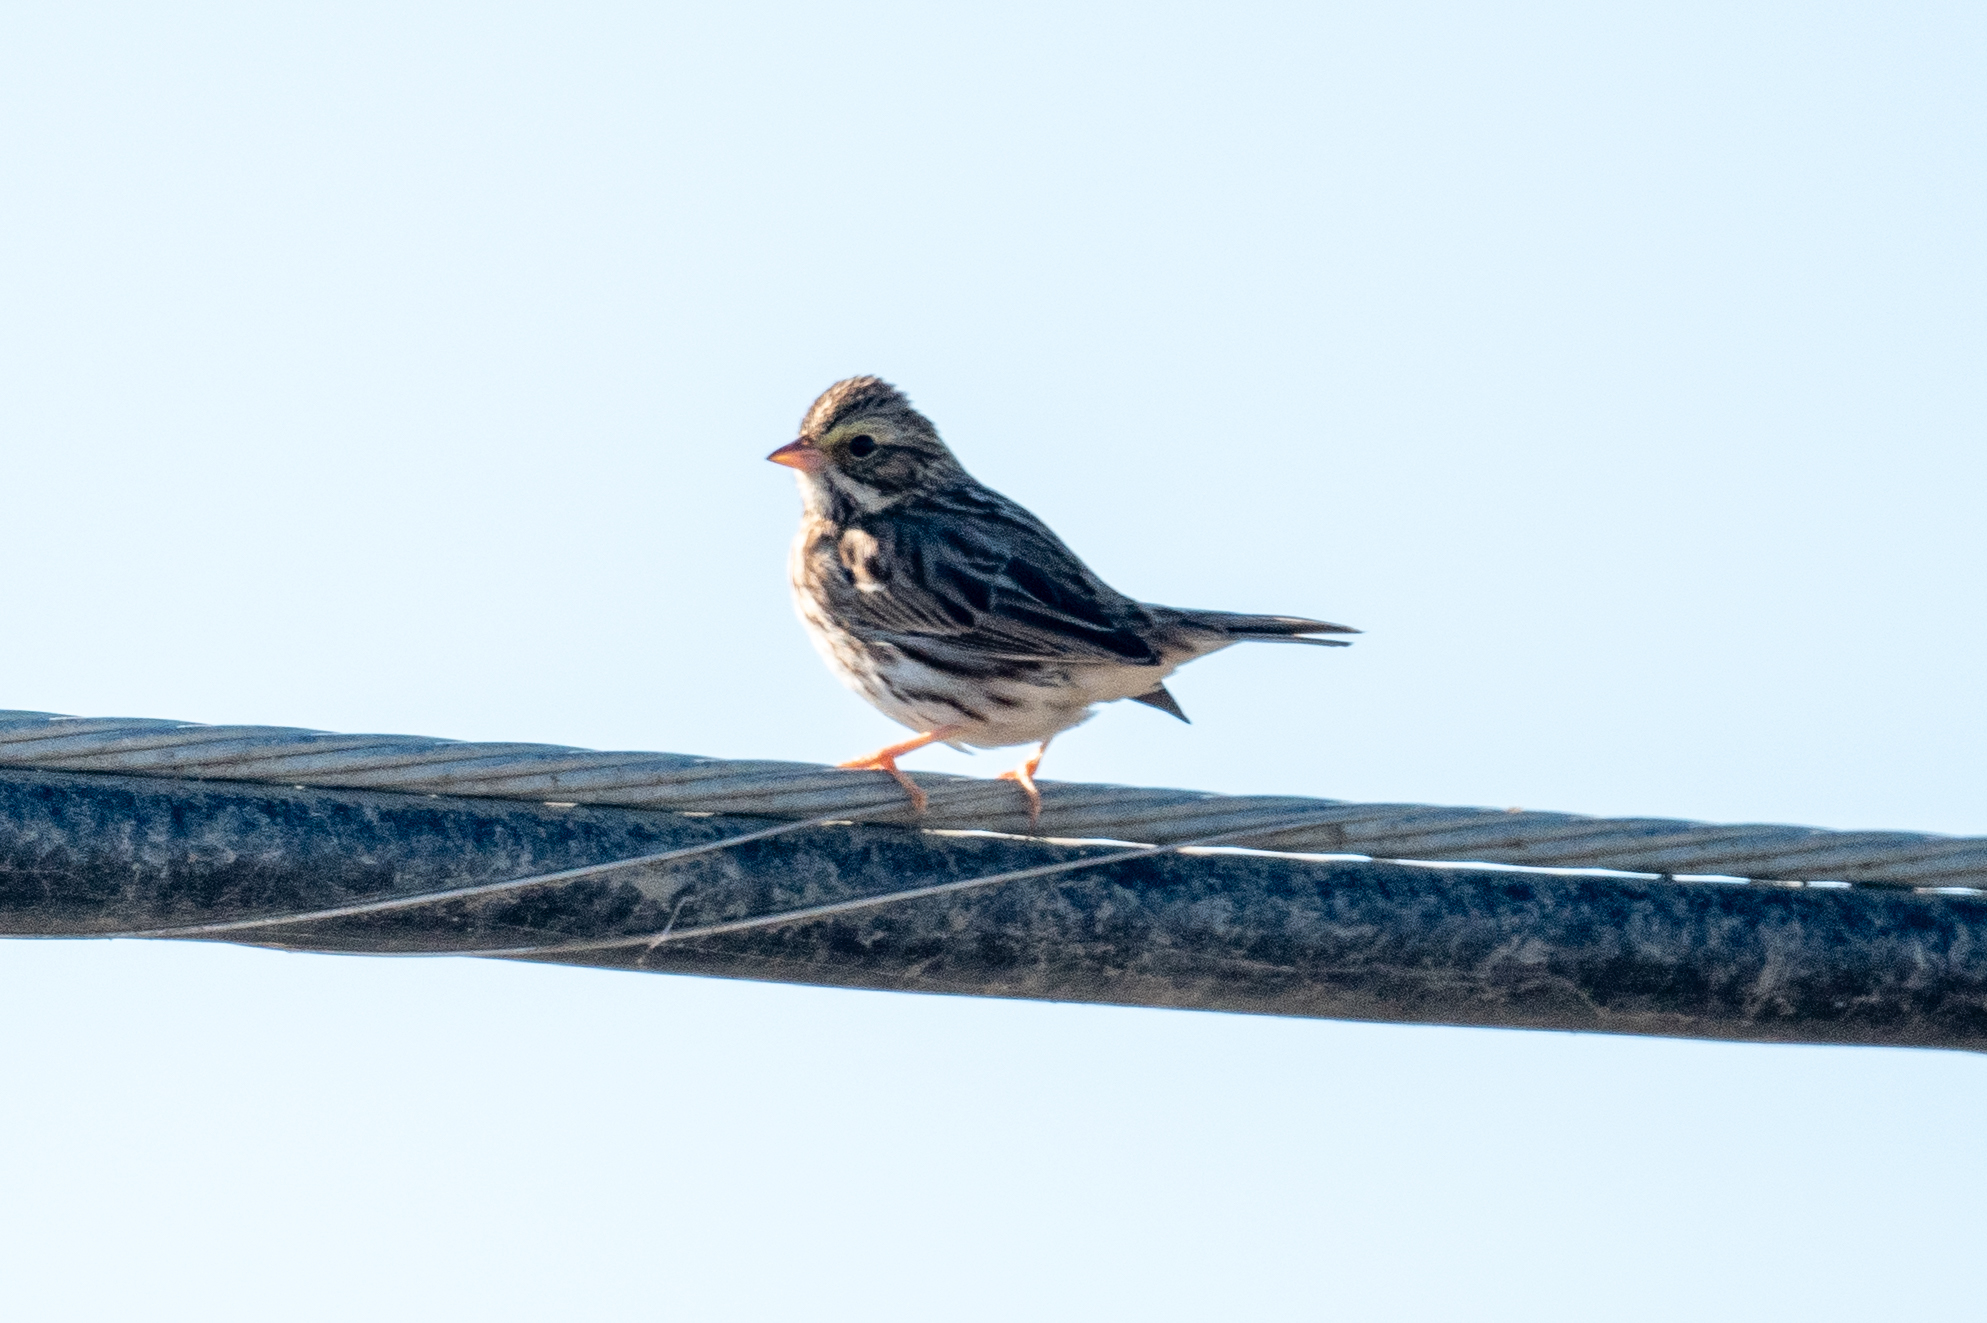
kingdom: Animalia
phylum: Chordata
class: Aves
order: Passeriformes
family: Passerellidae
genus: Passerculus
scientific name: Passerculus sandwichensis
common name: Savannah sparrow
